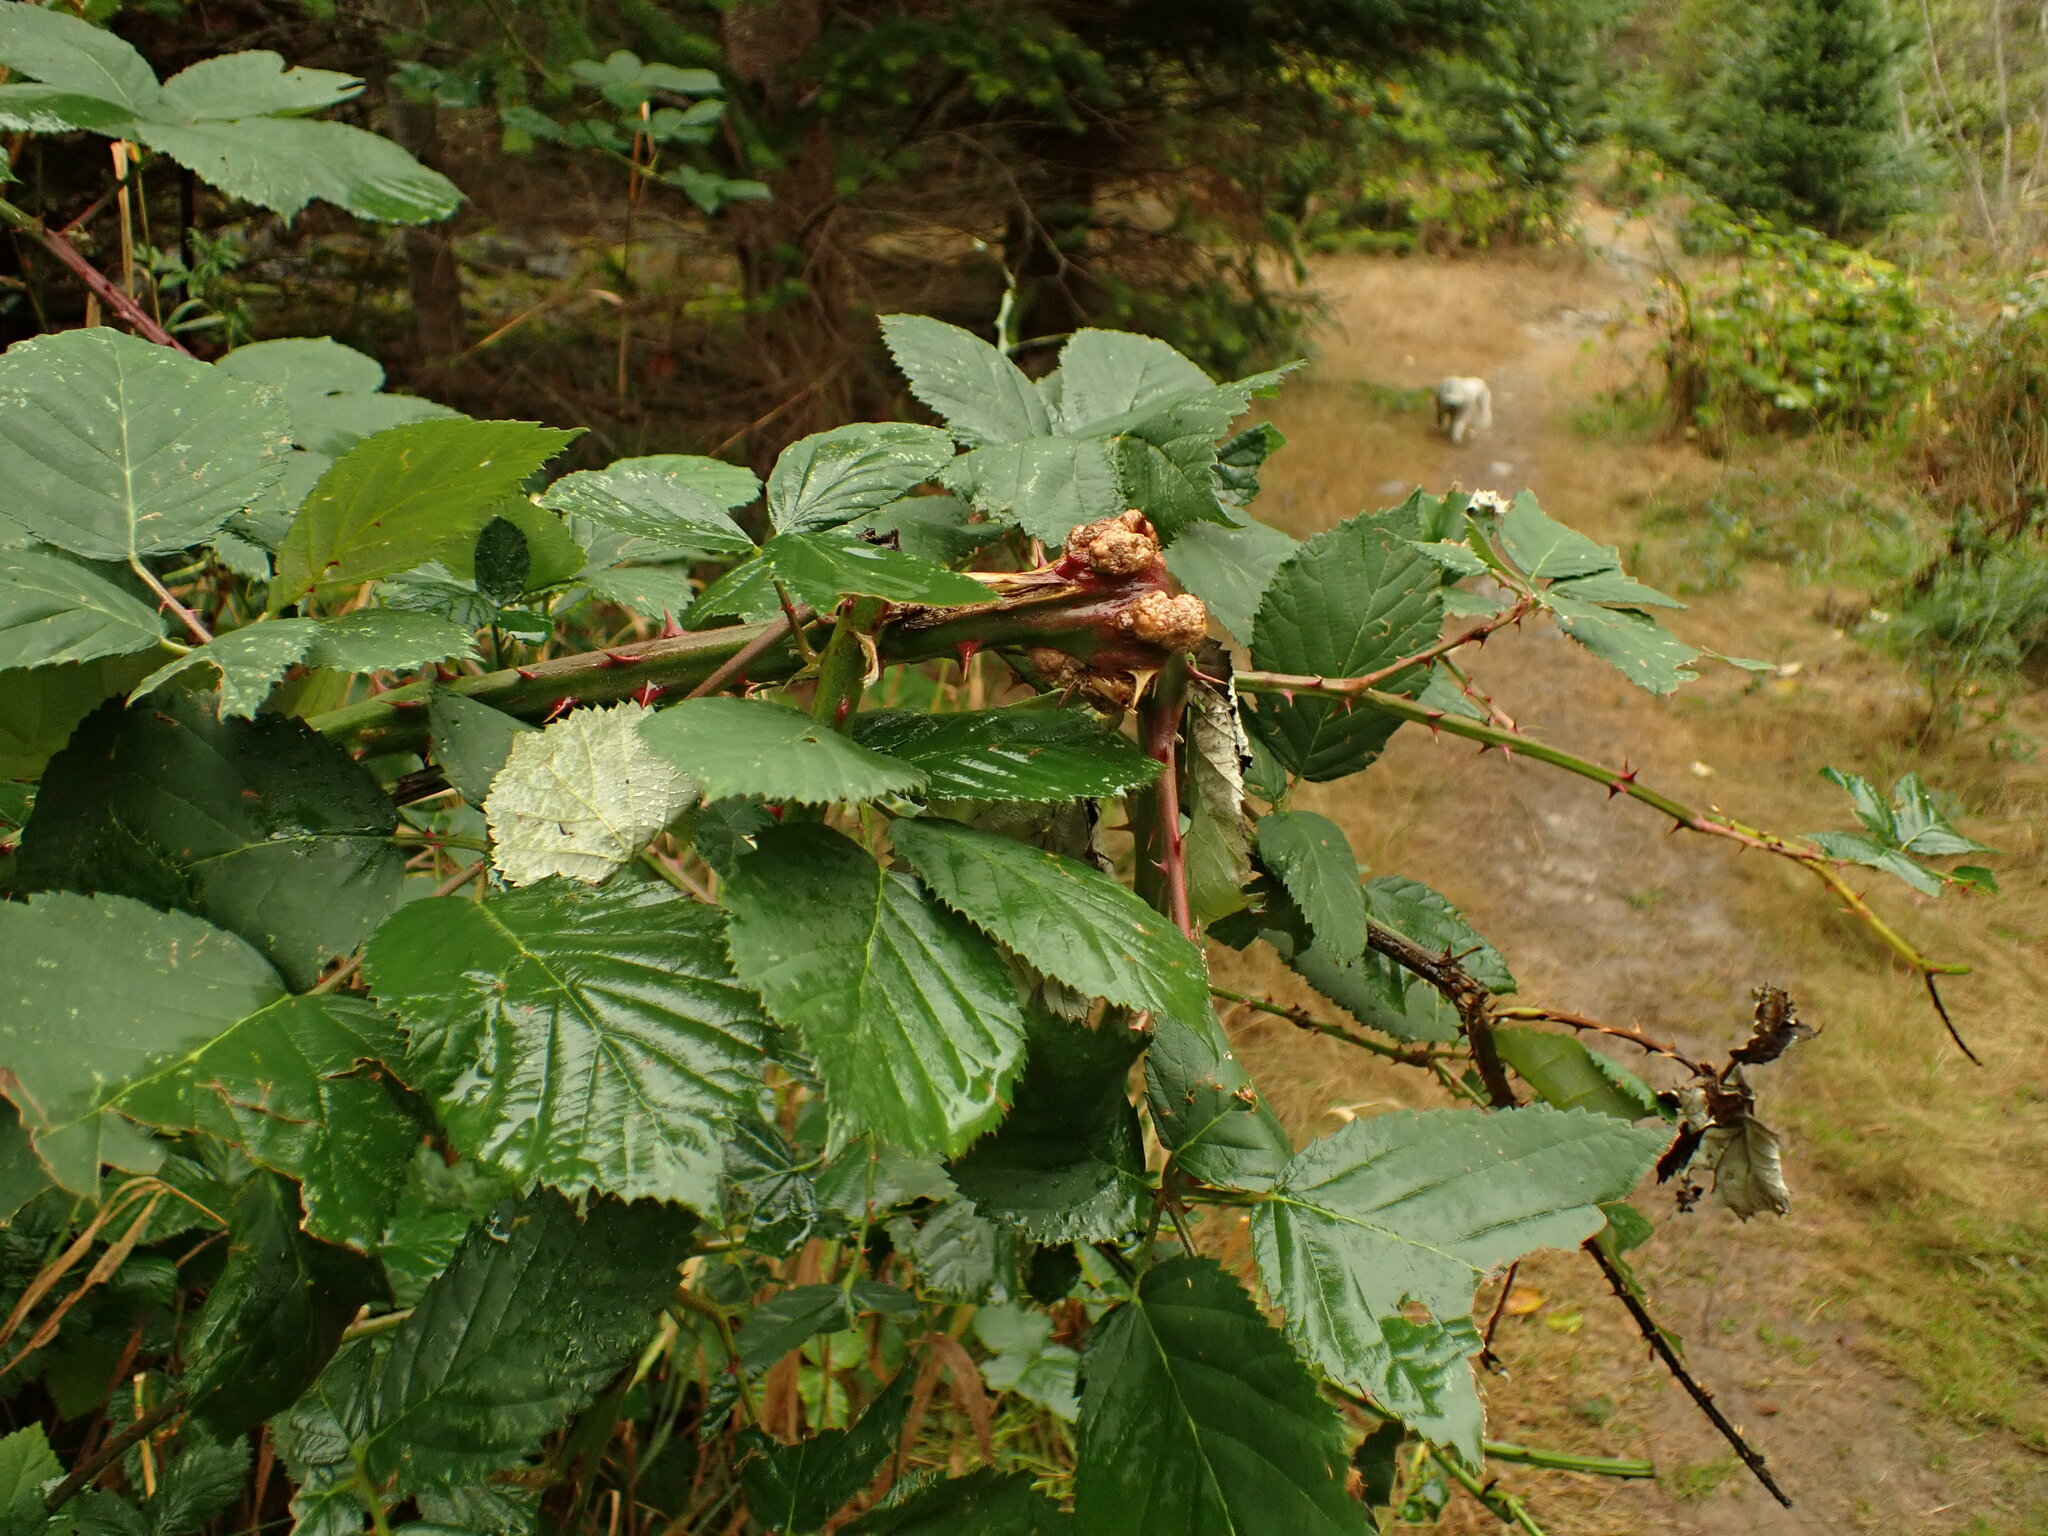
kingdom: Bacteria
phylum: Proteobacteria
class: Alphaproteobacteria
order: Rhizobiales
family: Rhizobiaceae
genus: Rhizobium
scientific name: Rhizobium Agrobacterium radiobacter
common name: Bacterial crown gall
